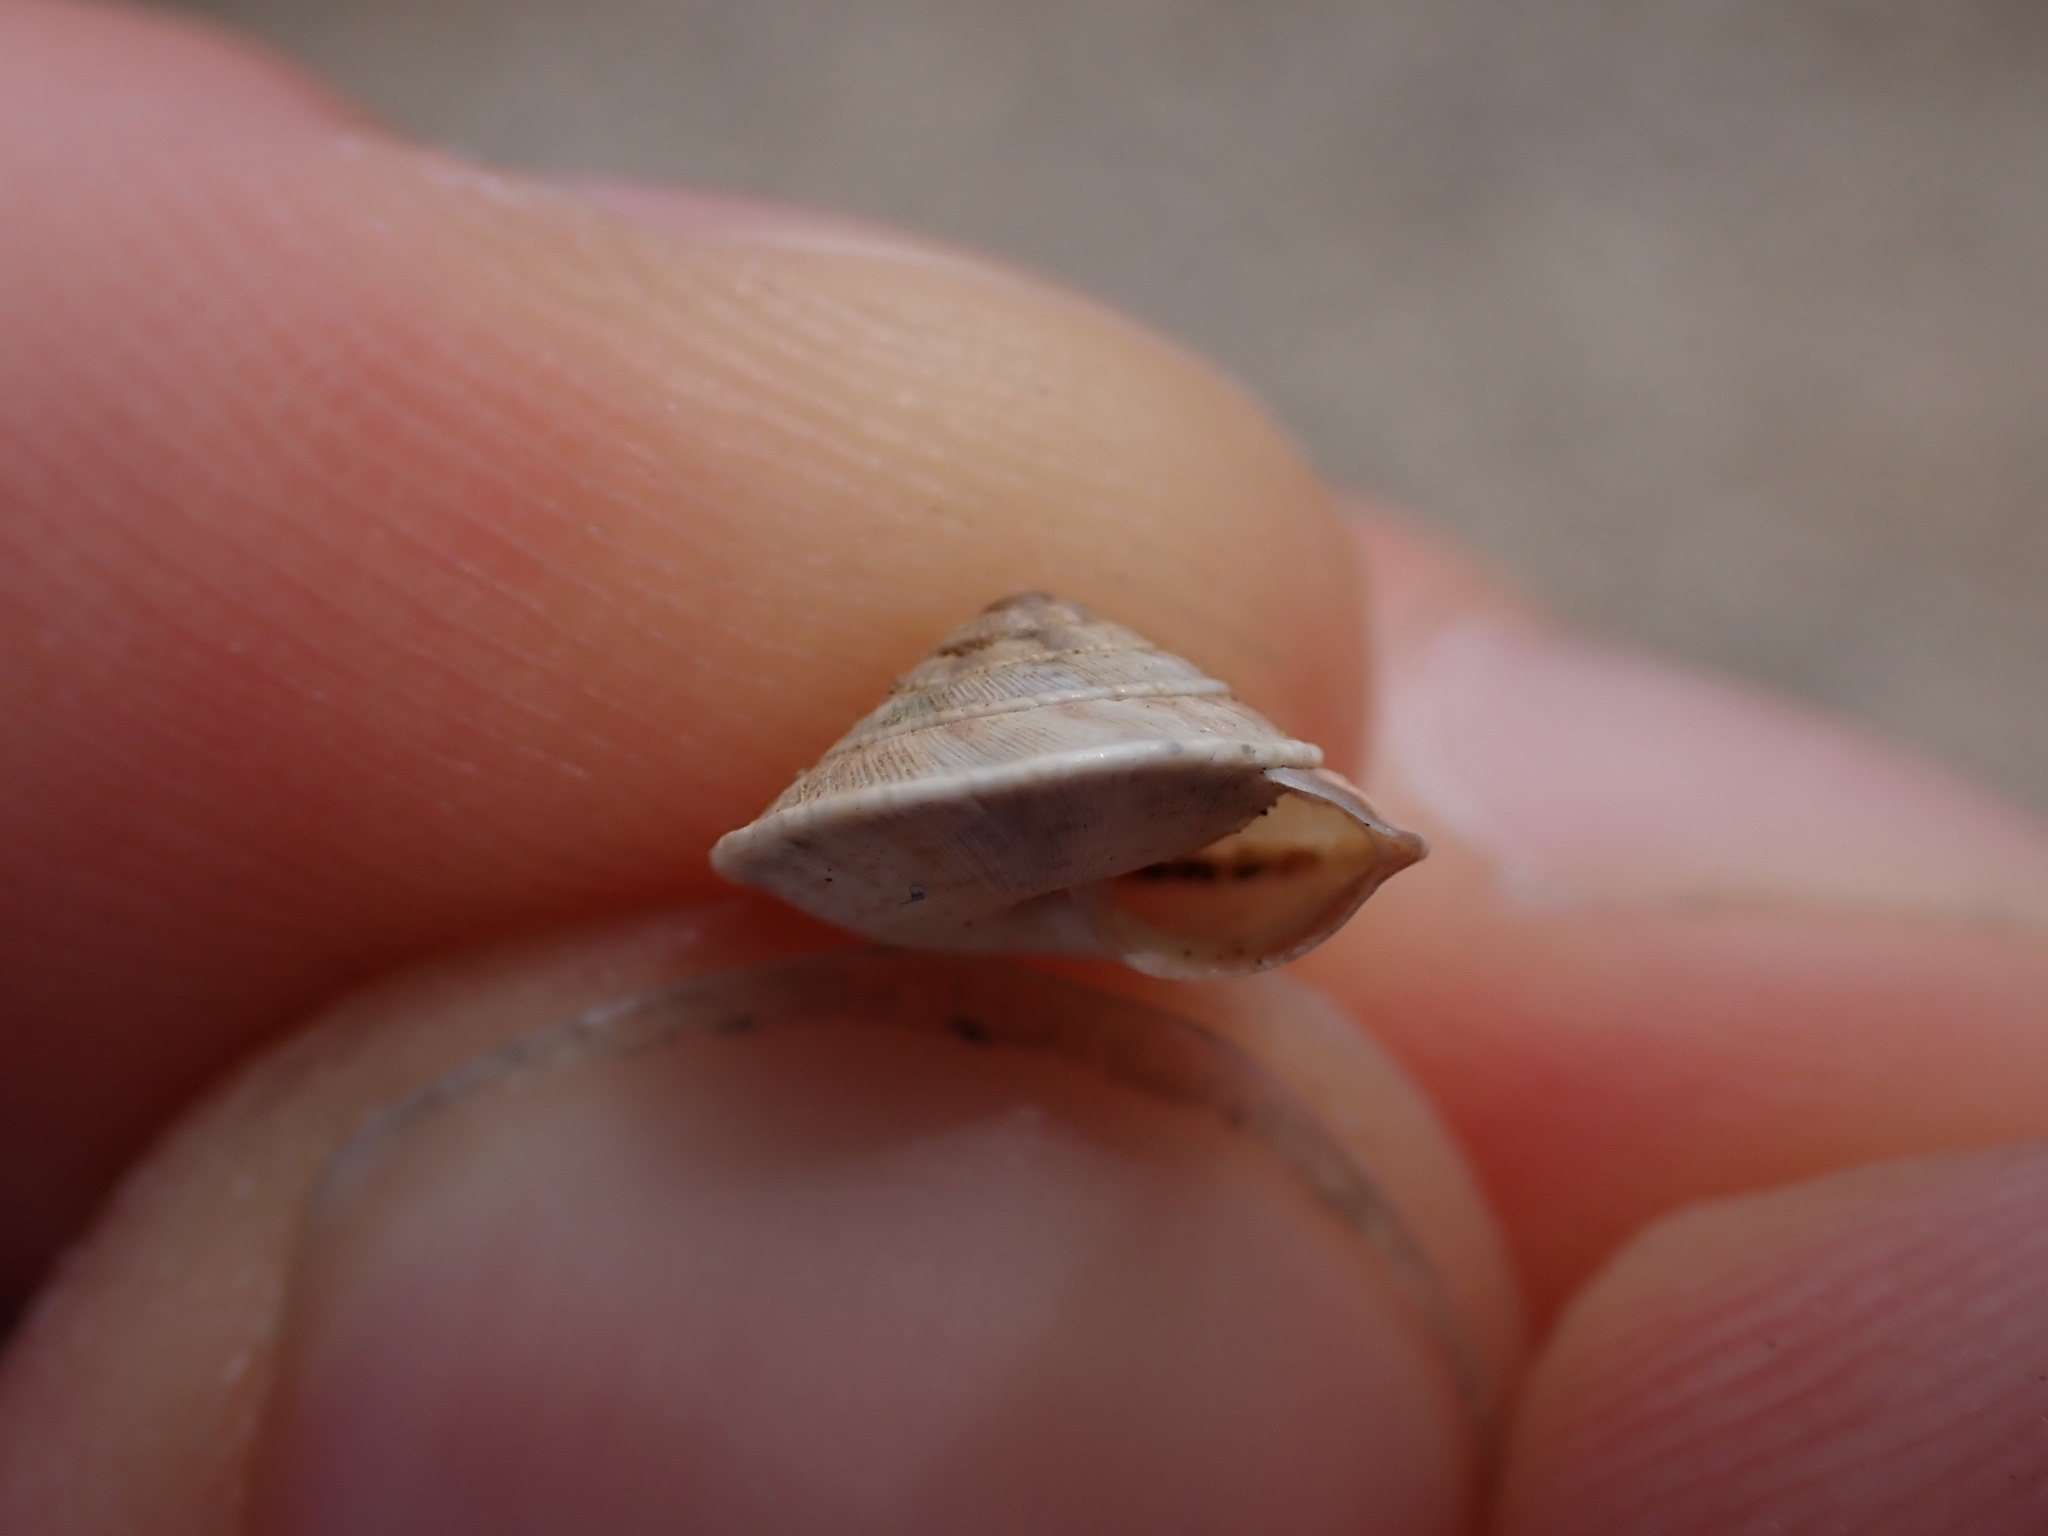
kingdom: Animalia
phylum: Mollusca
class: Gastropoda
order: Stylommatophora
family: Geomitridae
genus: Trochoidea
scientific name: Trochoidea elegans
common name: Elegant helicellid
